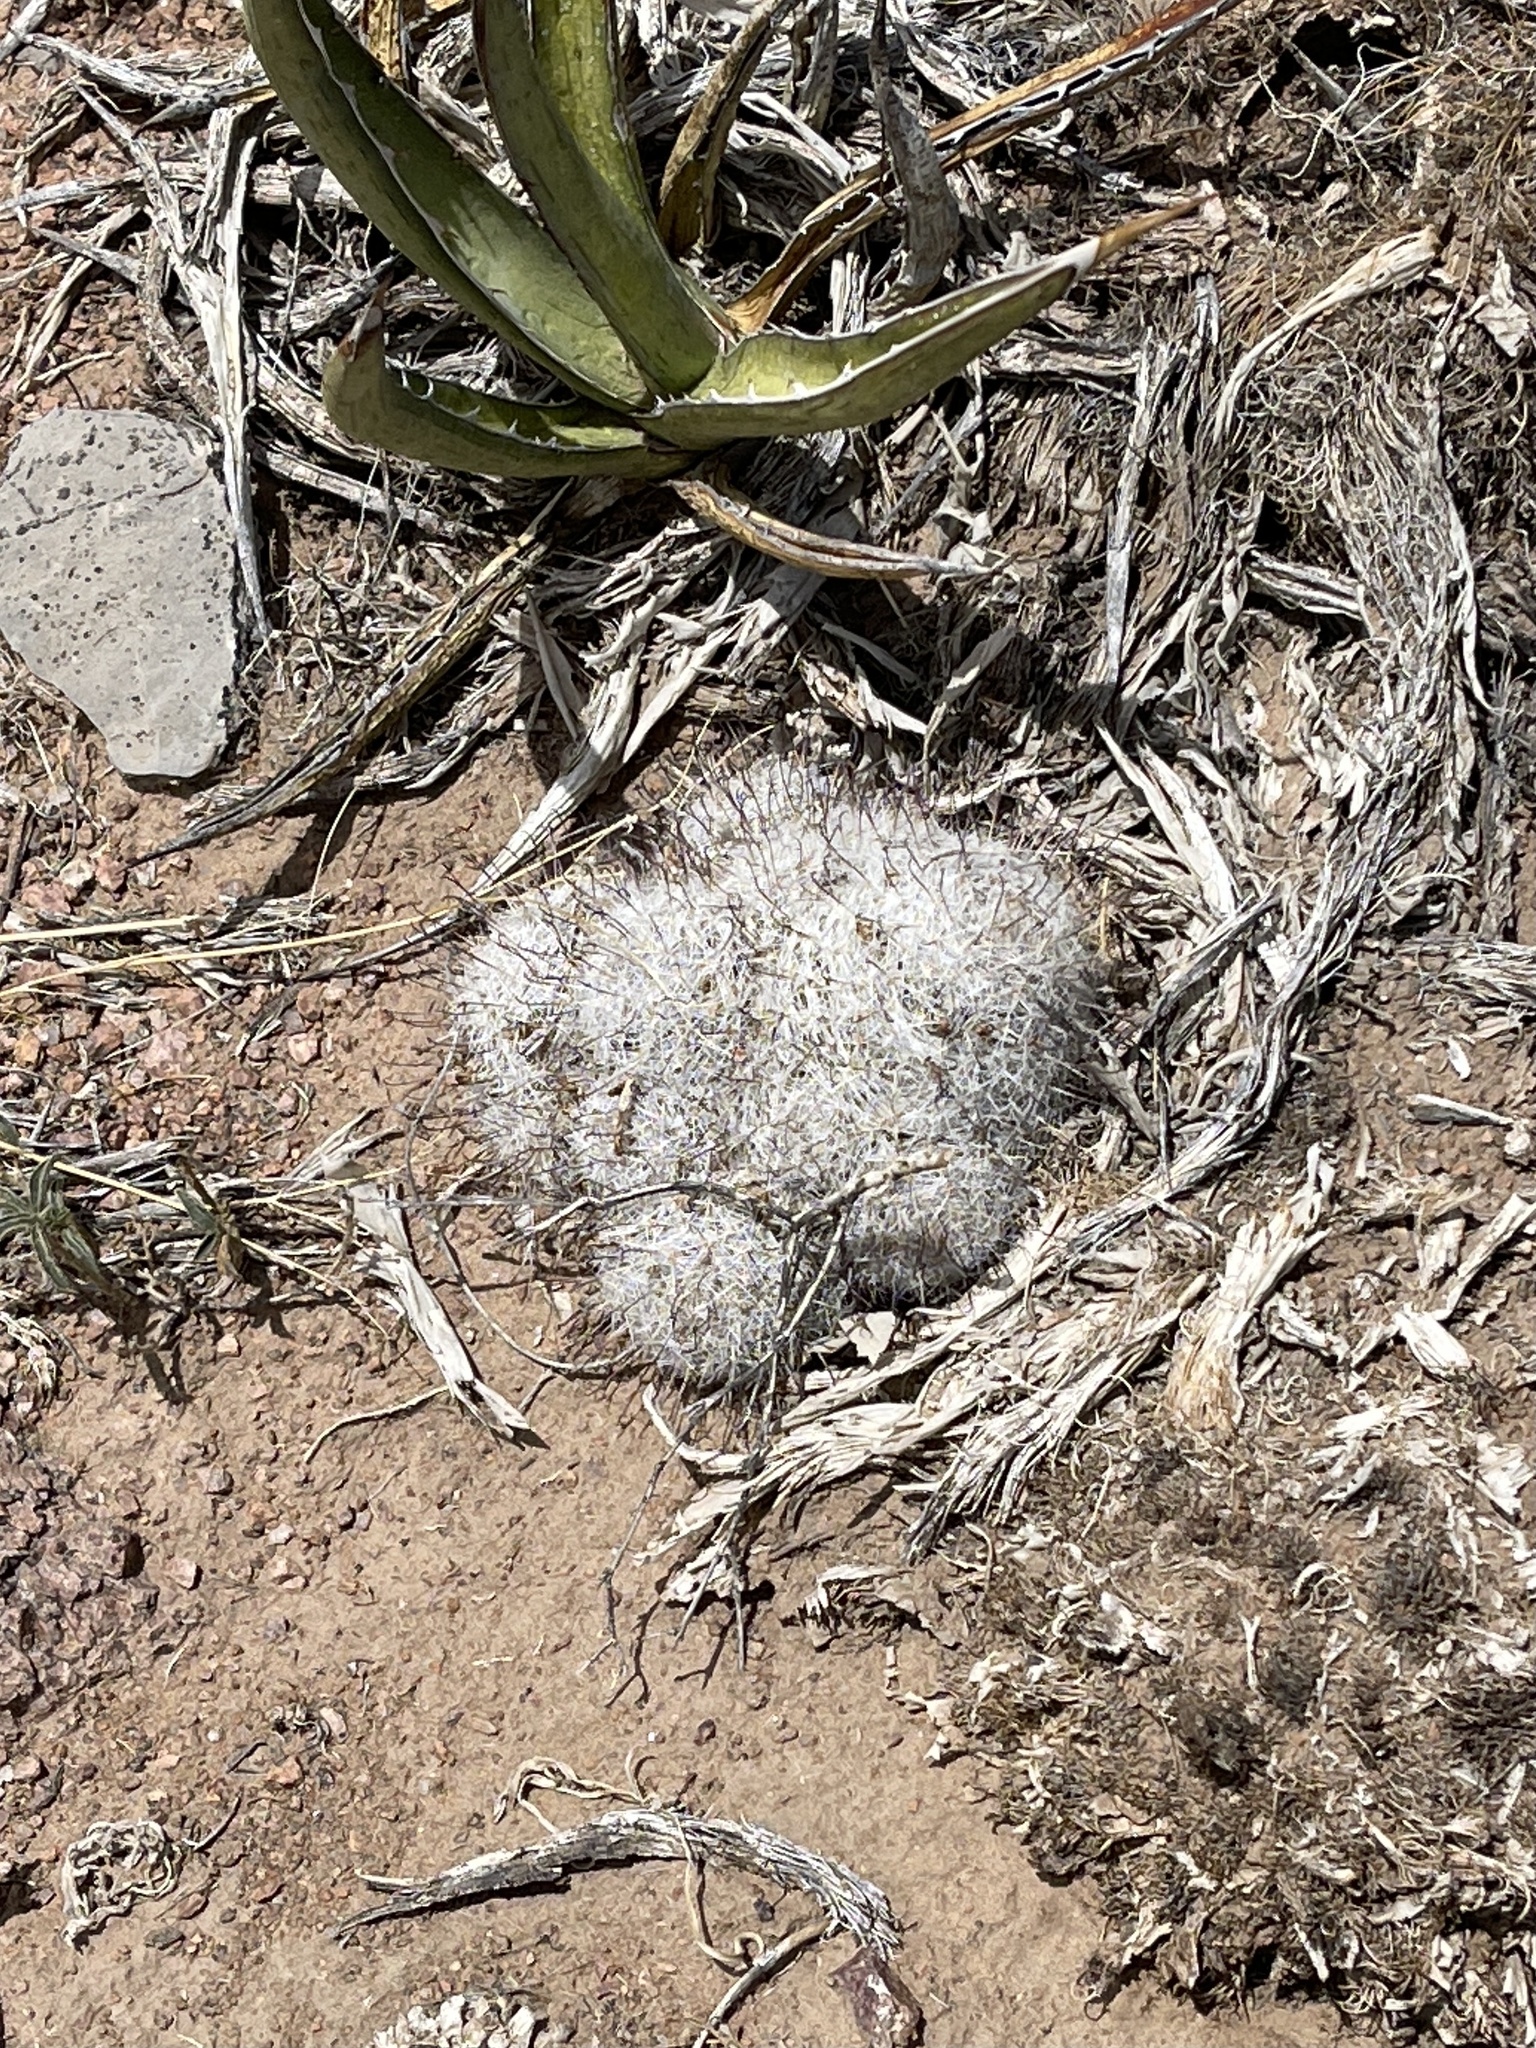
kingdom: Plantae
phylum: Tracheophyta
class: Magnoliopsida
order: Caryophyllales
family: Cactaceae
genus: Cochemiea
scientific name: Cochemiea grahamii
